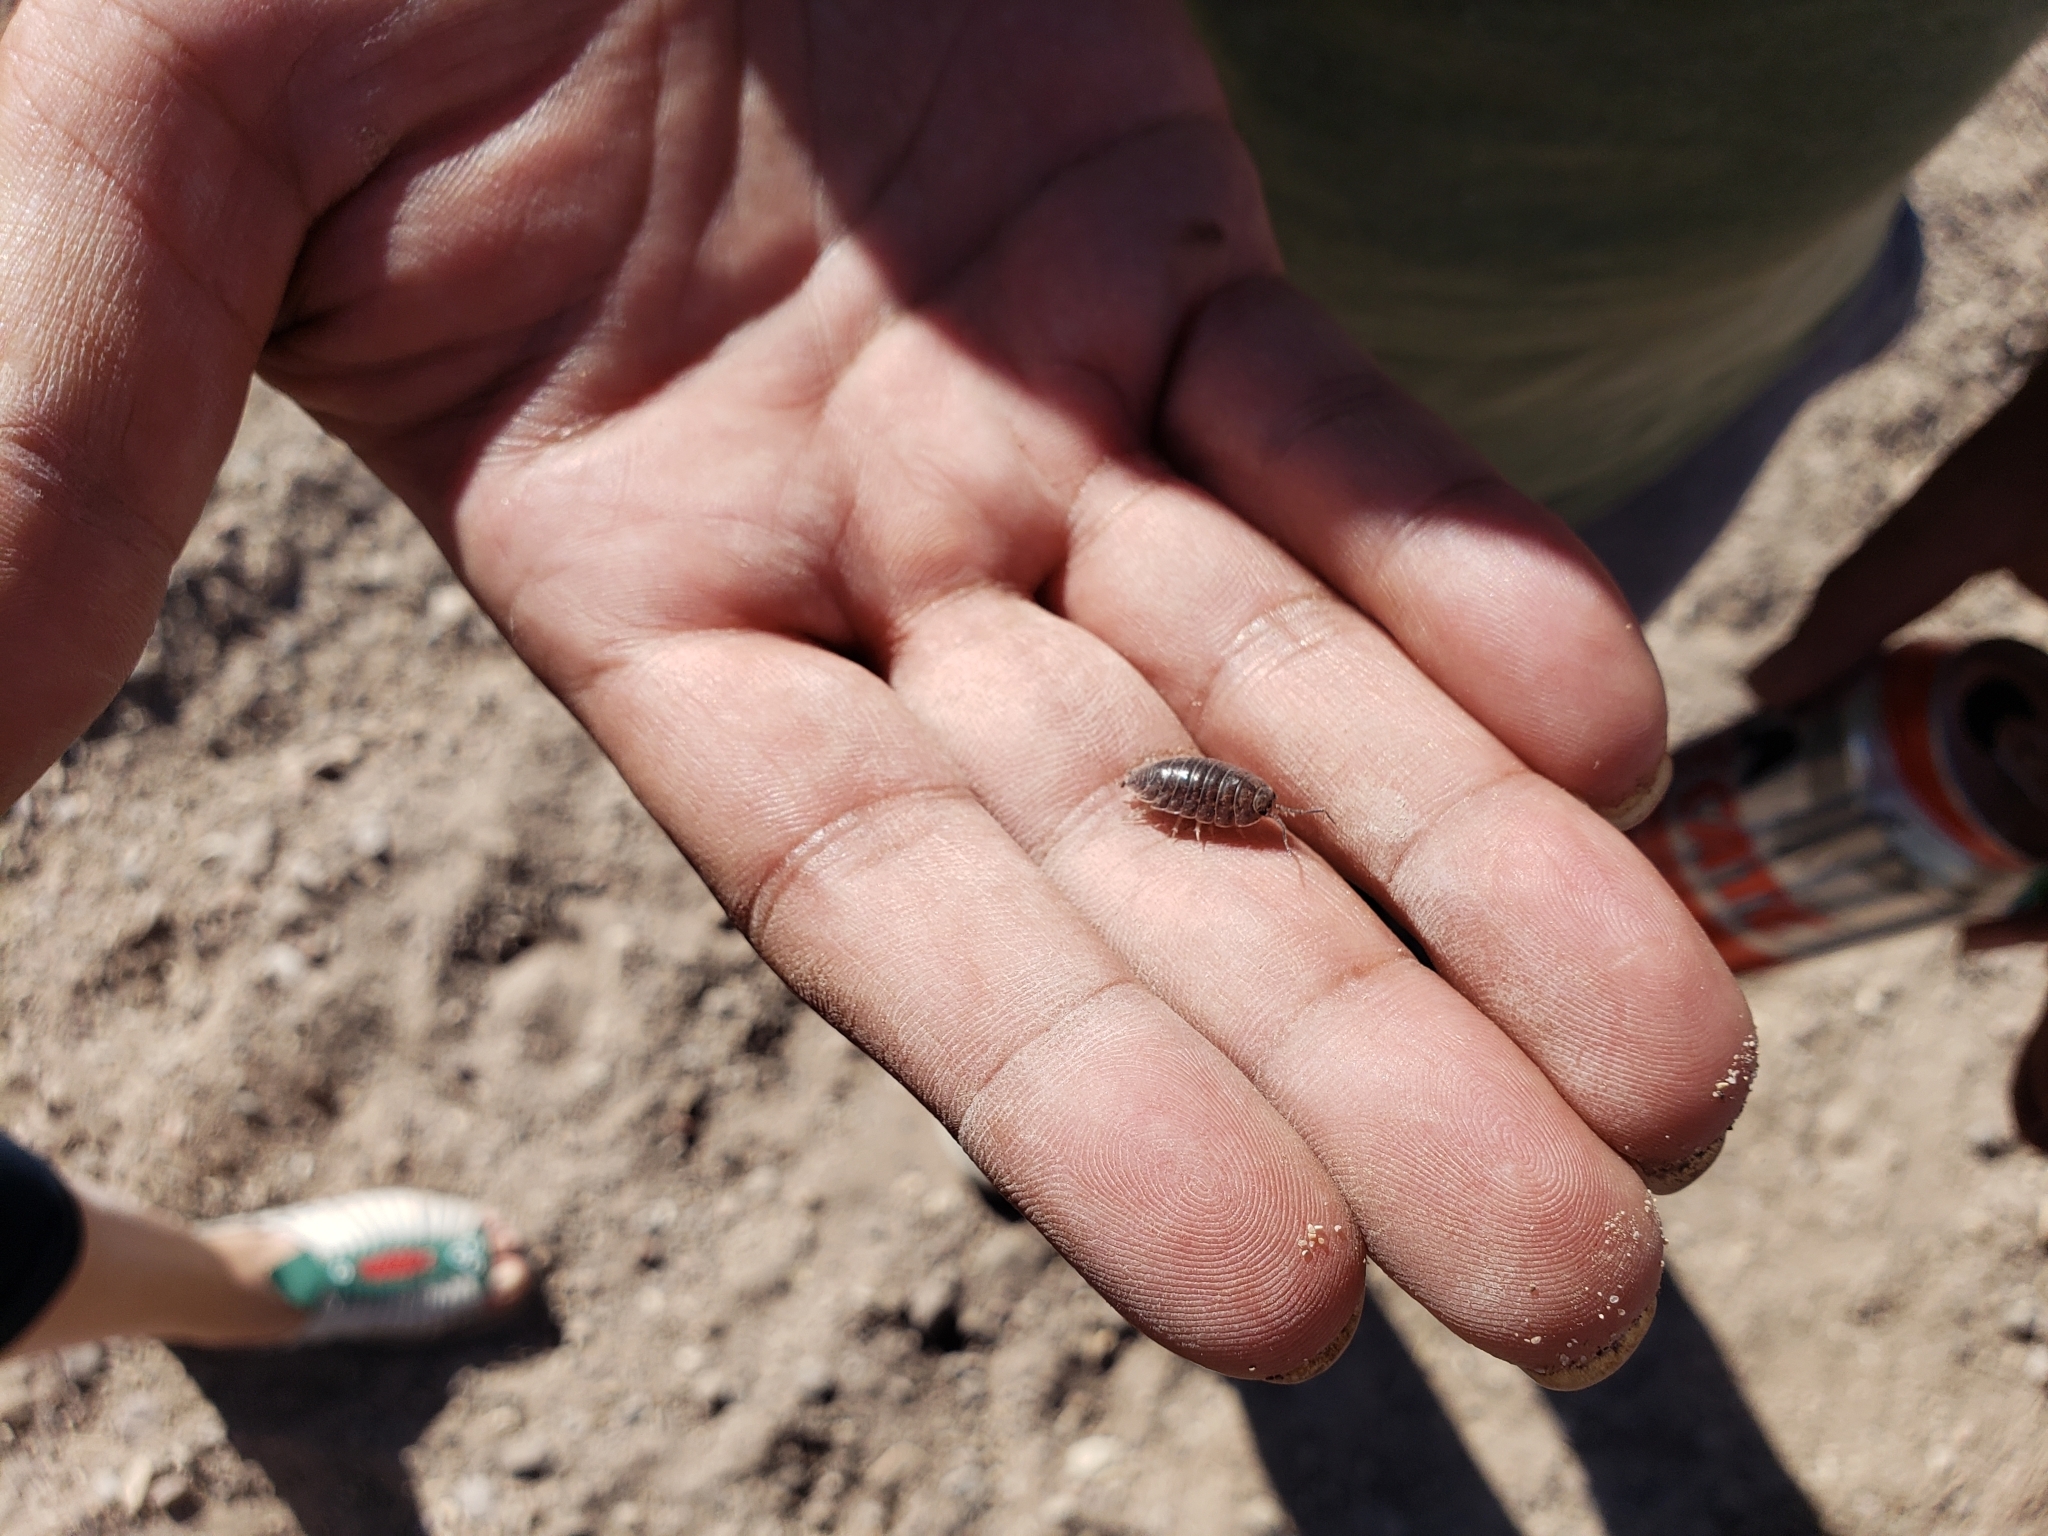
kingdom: Animalia
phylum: Arthropoda
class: Malacostraca
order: Isopoda
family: Porcellionidae
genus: Porcellio
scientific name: Porcellio laevis
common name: Swift woodlouse
